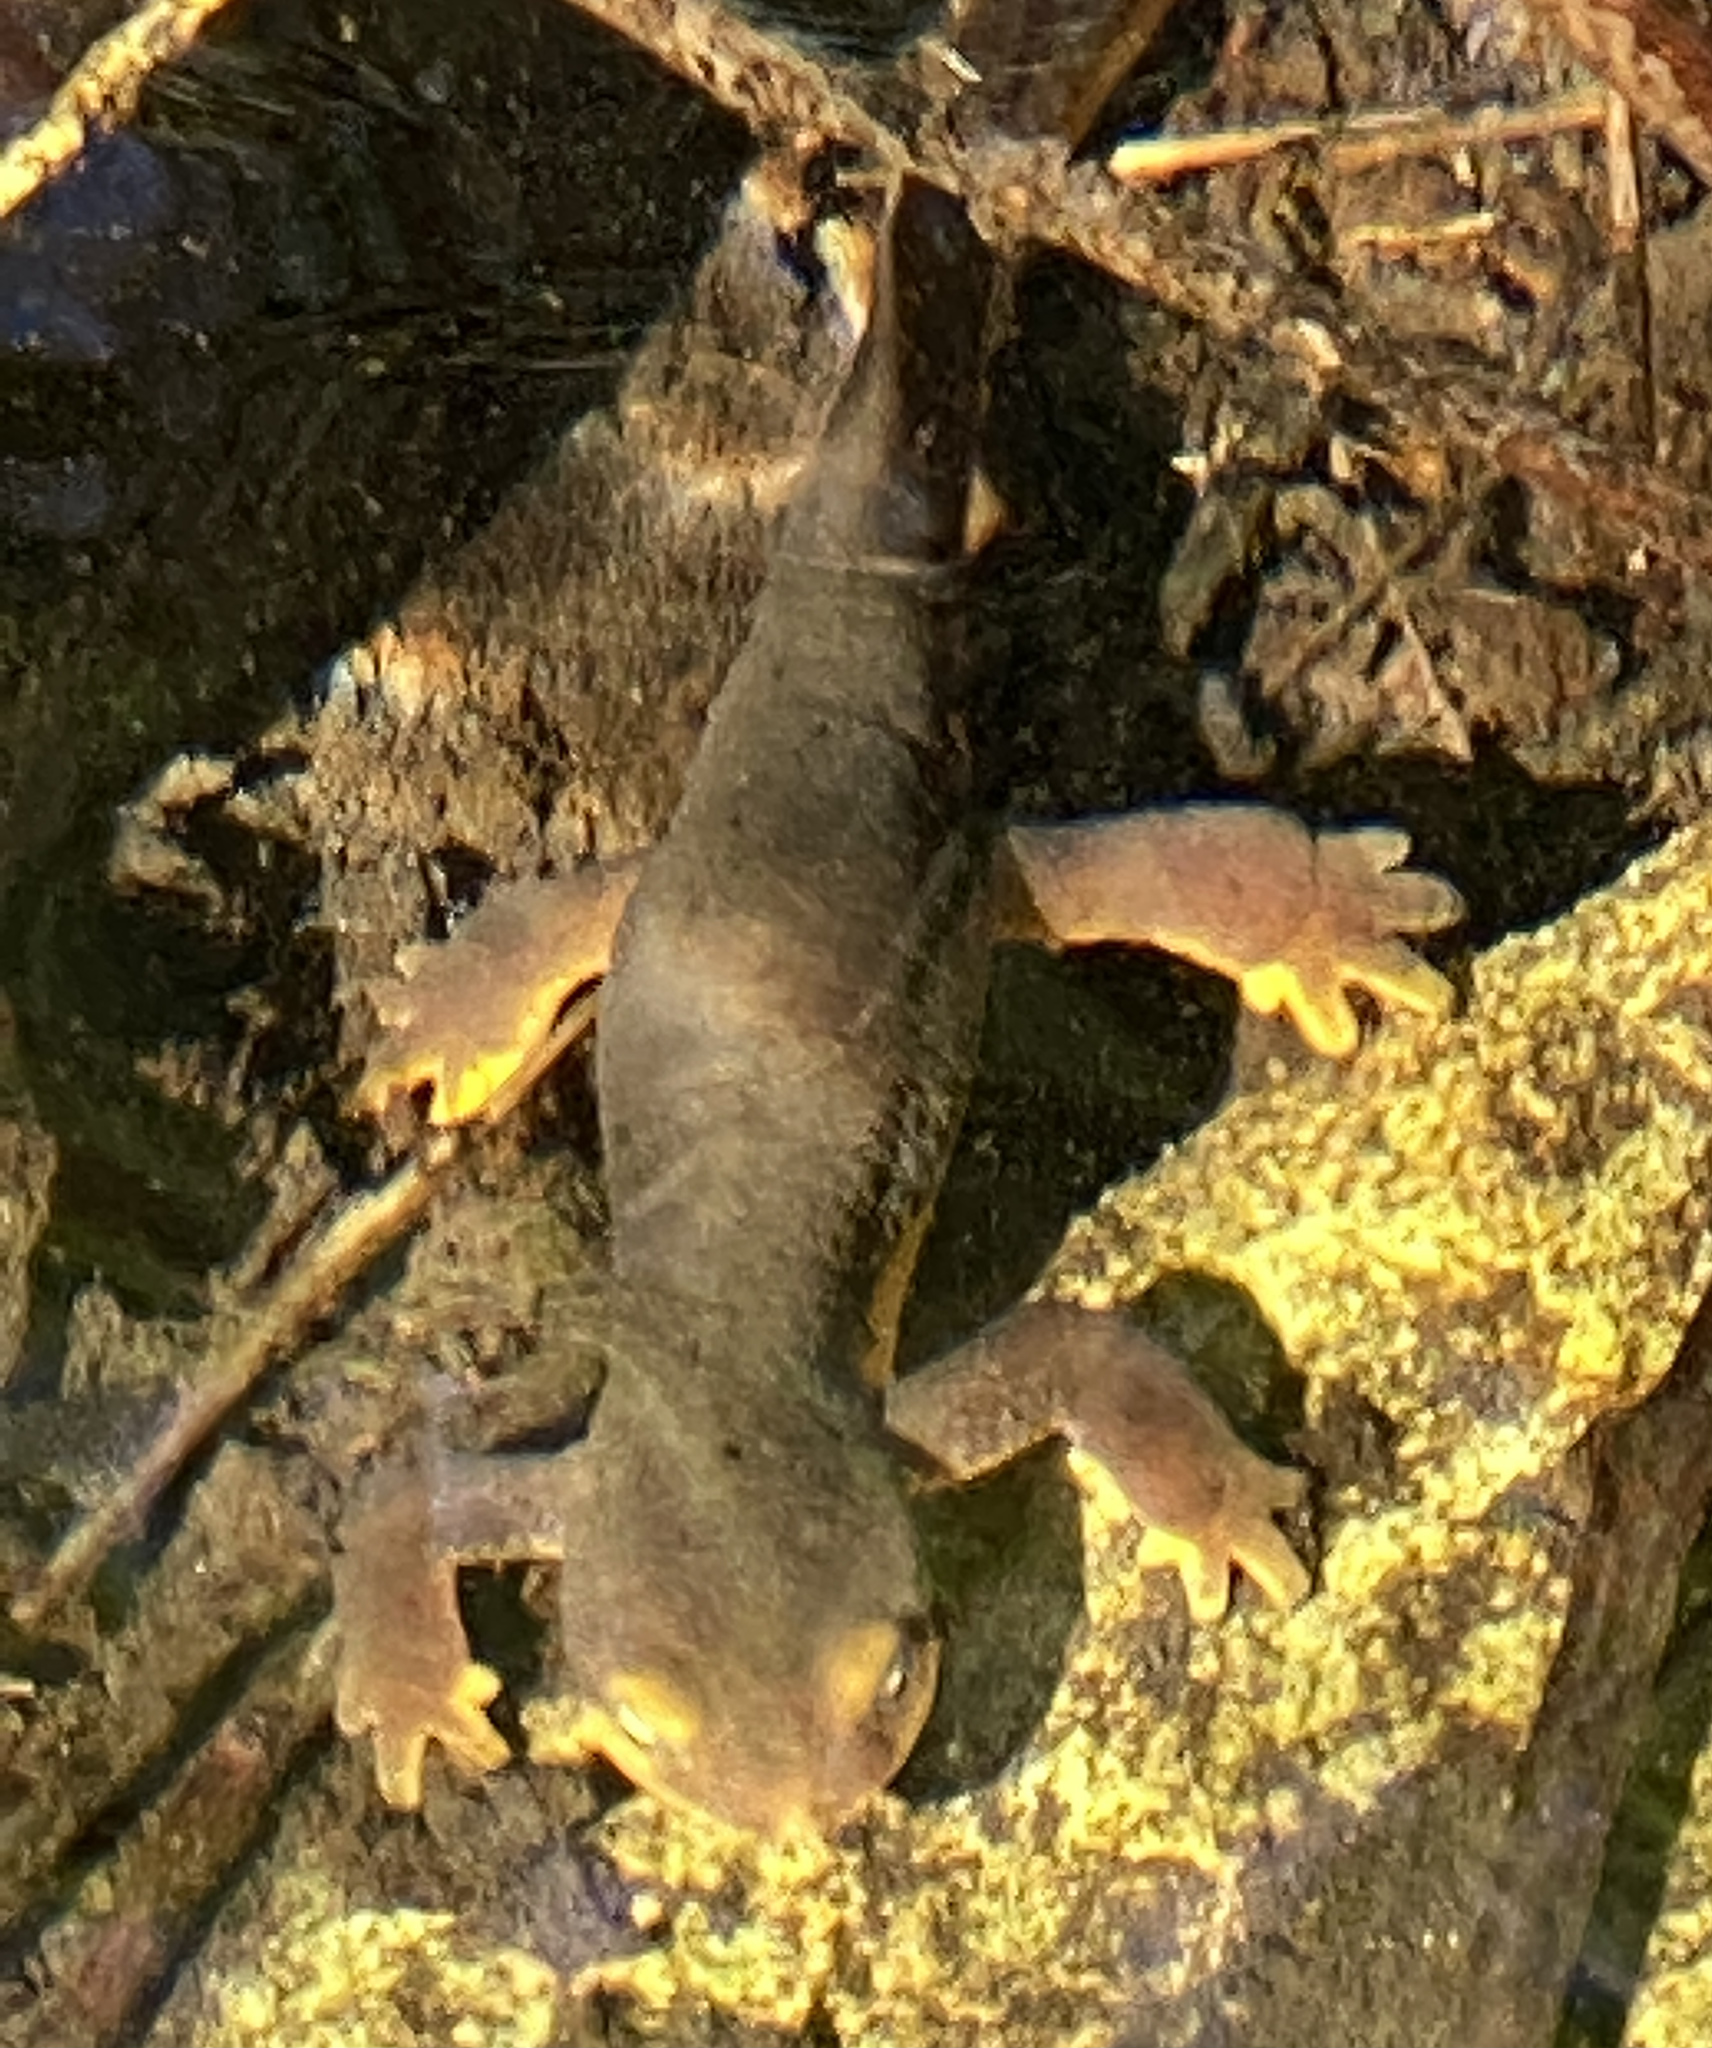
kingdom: Animalia
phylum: Chordata
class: Amphibia
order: Caudata
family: Salamandridae
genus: Taricha
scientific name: Taricha torosa
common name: California newt
